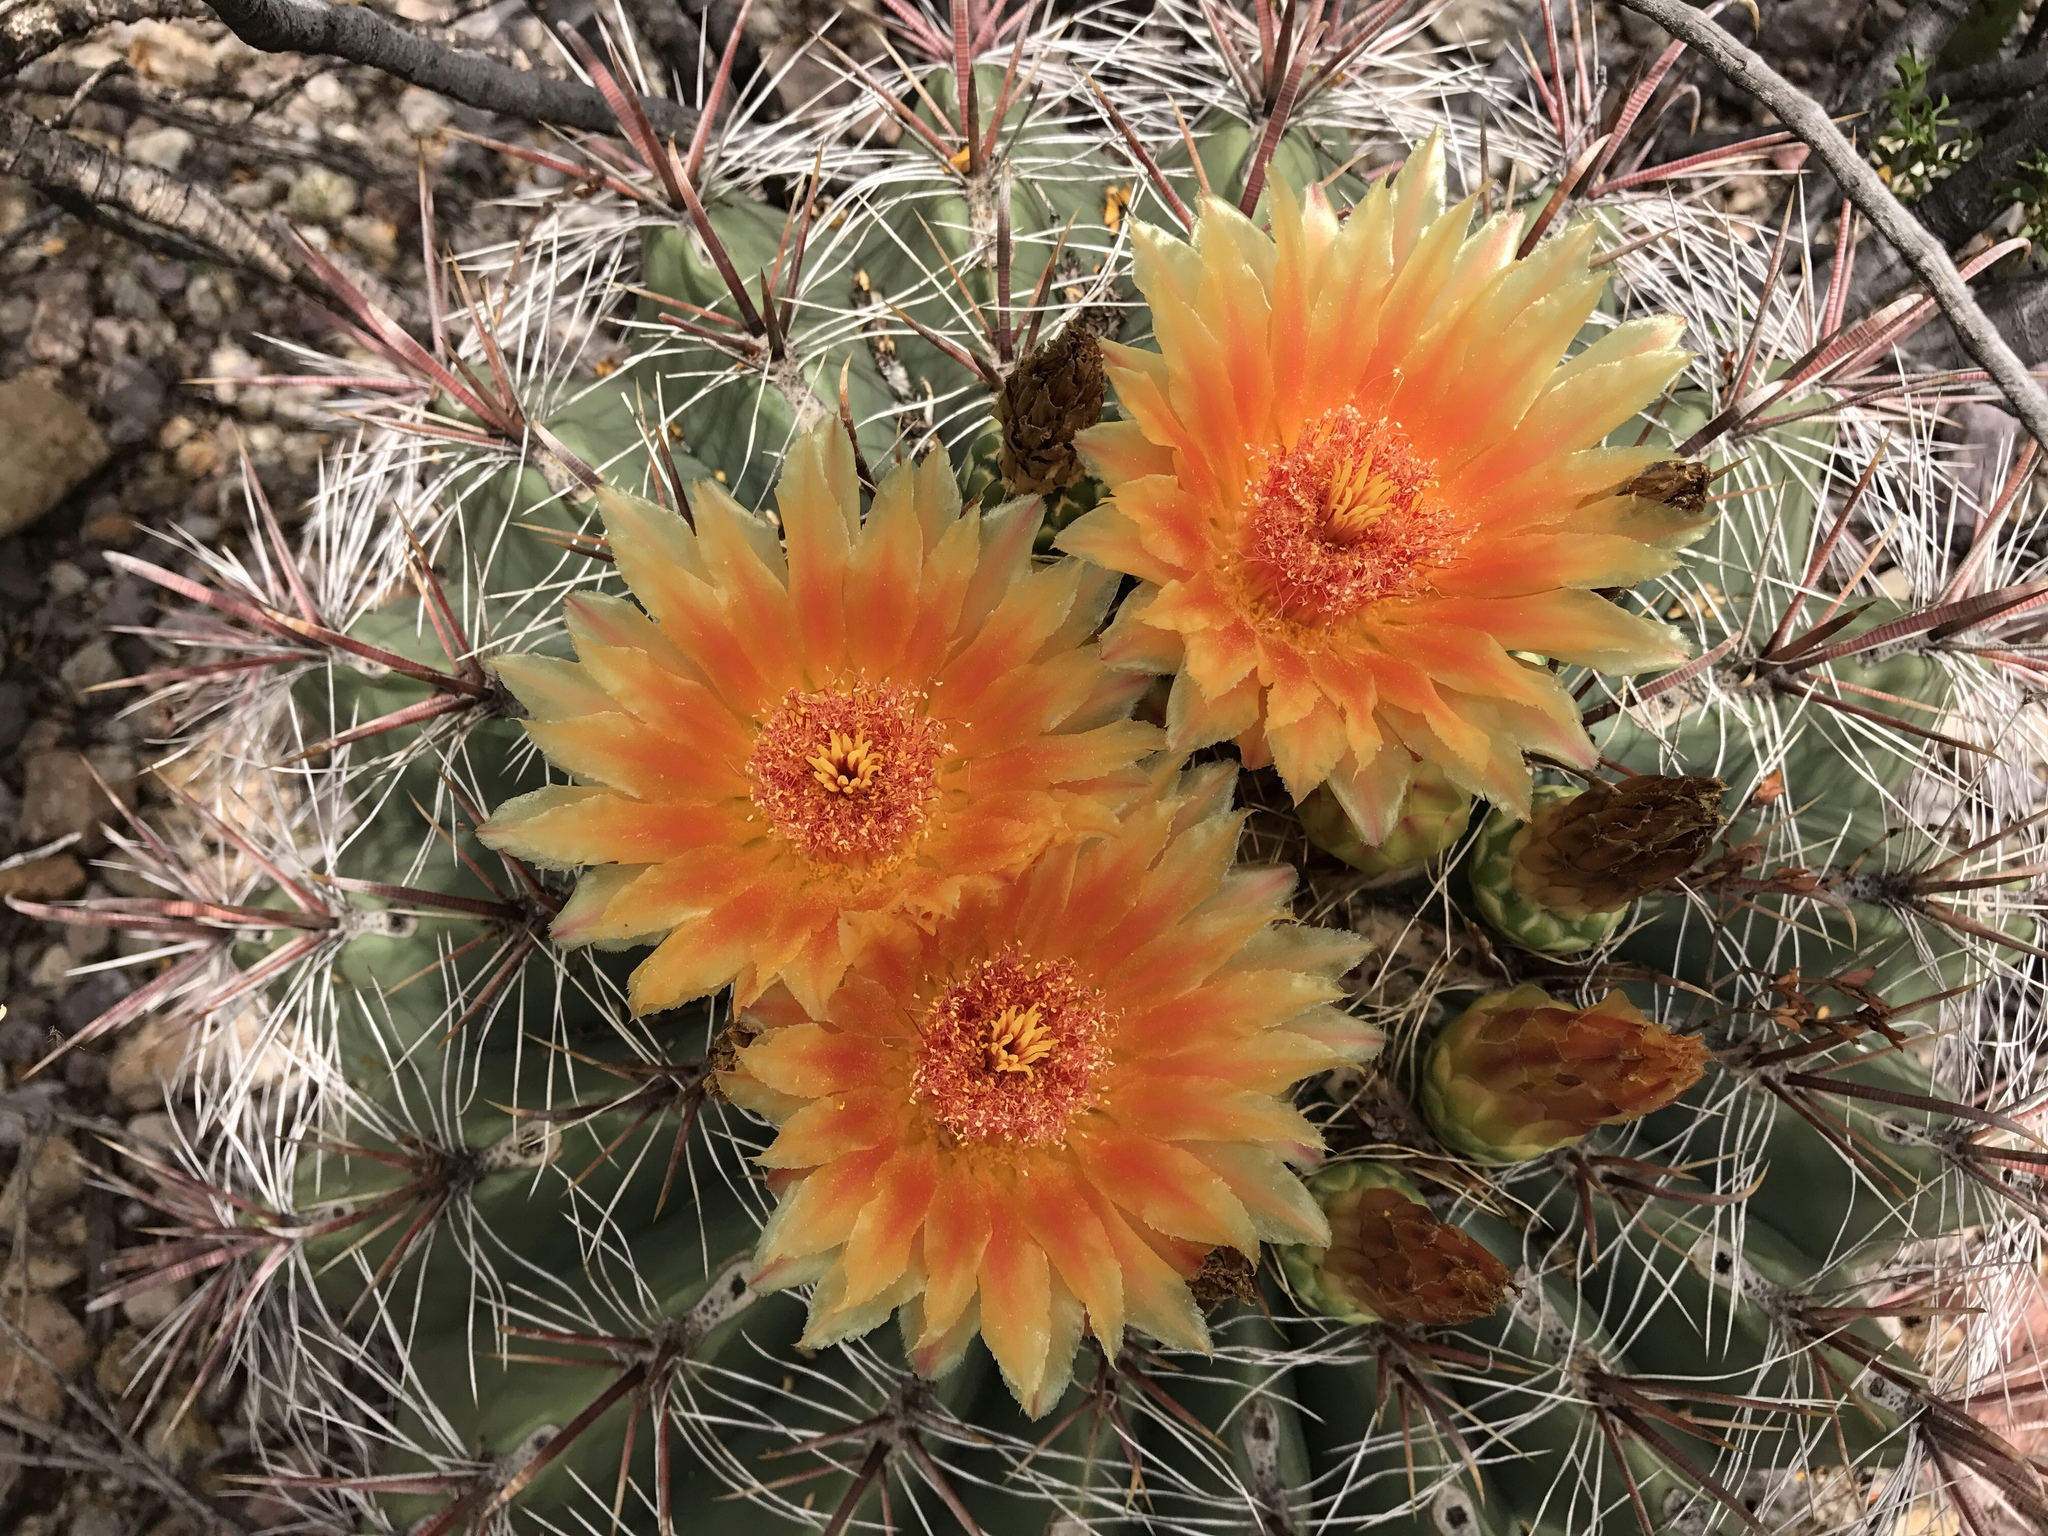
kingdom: Plantae
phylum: Tracheophyta
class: Magnoliopsida
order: Caryophyllales
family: Cactaceae
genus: Ferocactus
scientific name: Ferocactus wislizeni
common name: Candy barrel cactus
